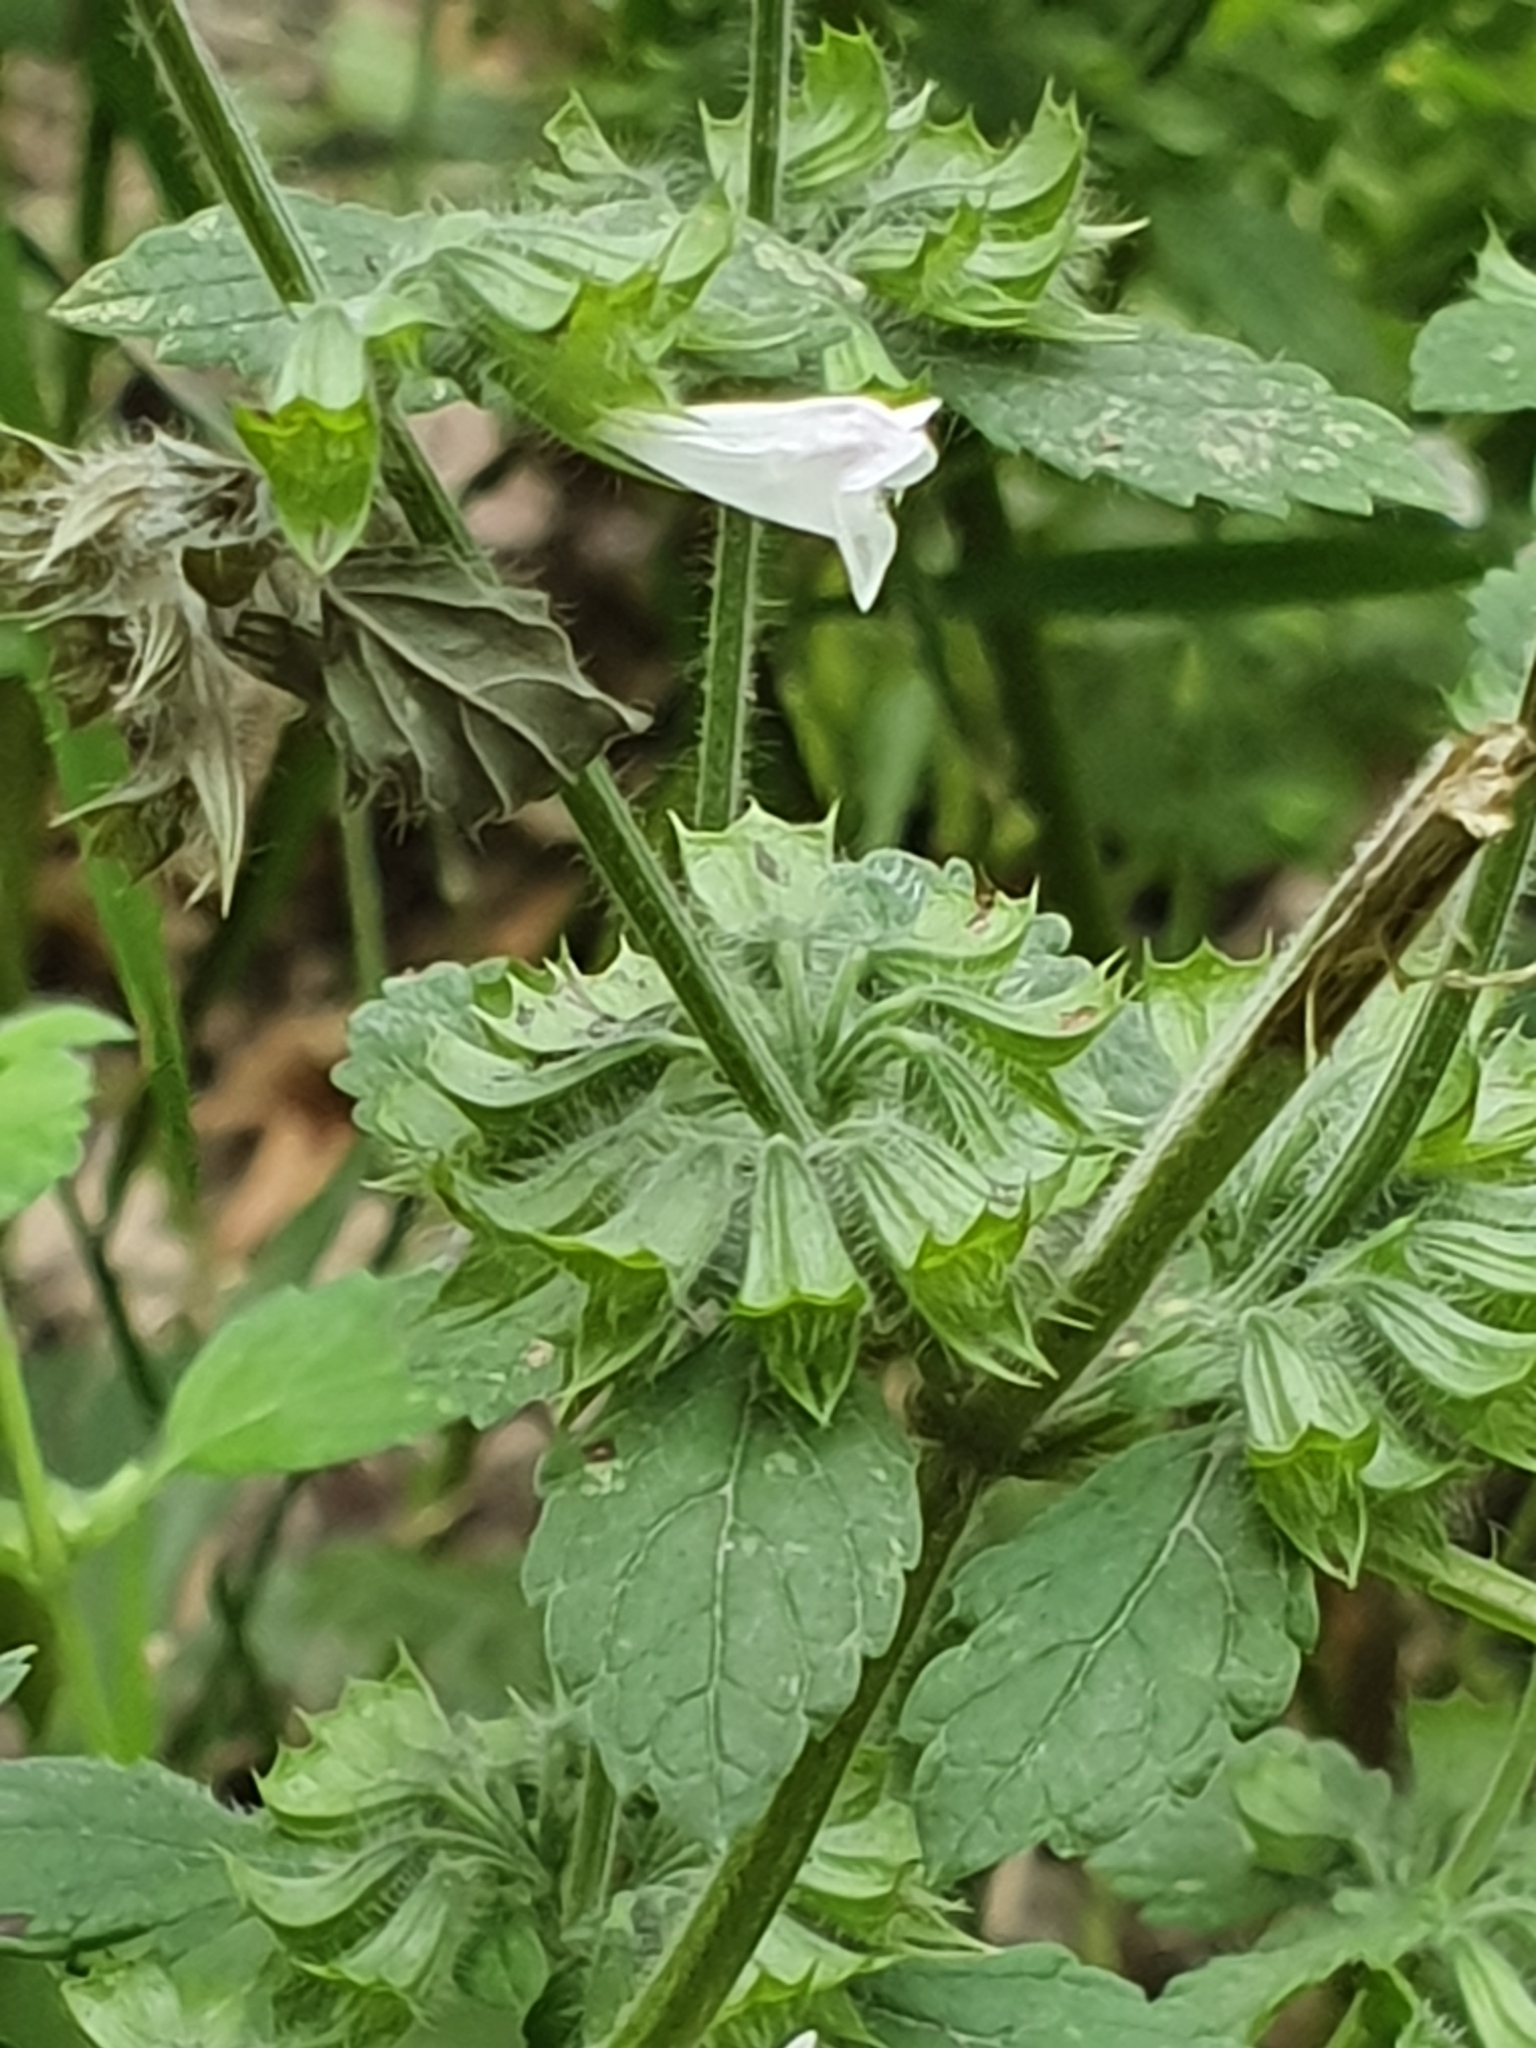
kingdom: Plantae
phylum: Tracheophyta
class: Magnoliopsida
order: Lamiales
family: Lamiaceae
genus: Melissa
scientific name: Melissa officinalis
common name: Balm
